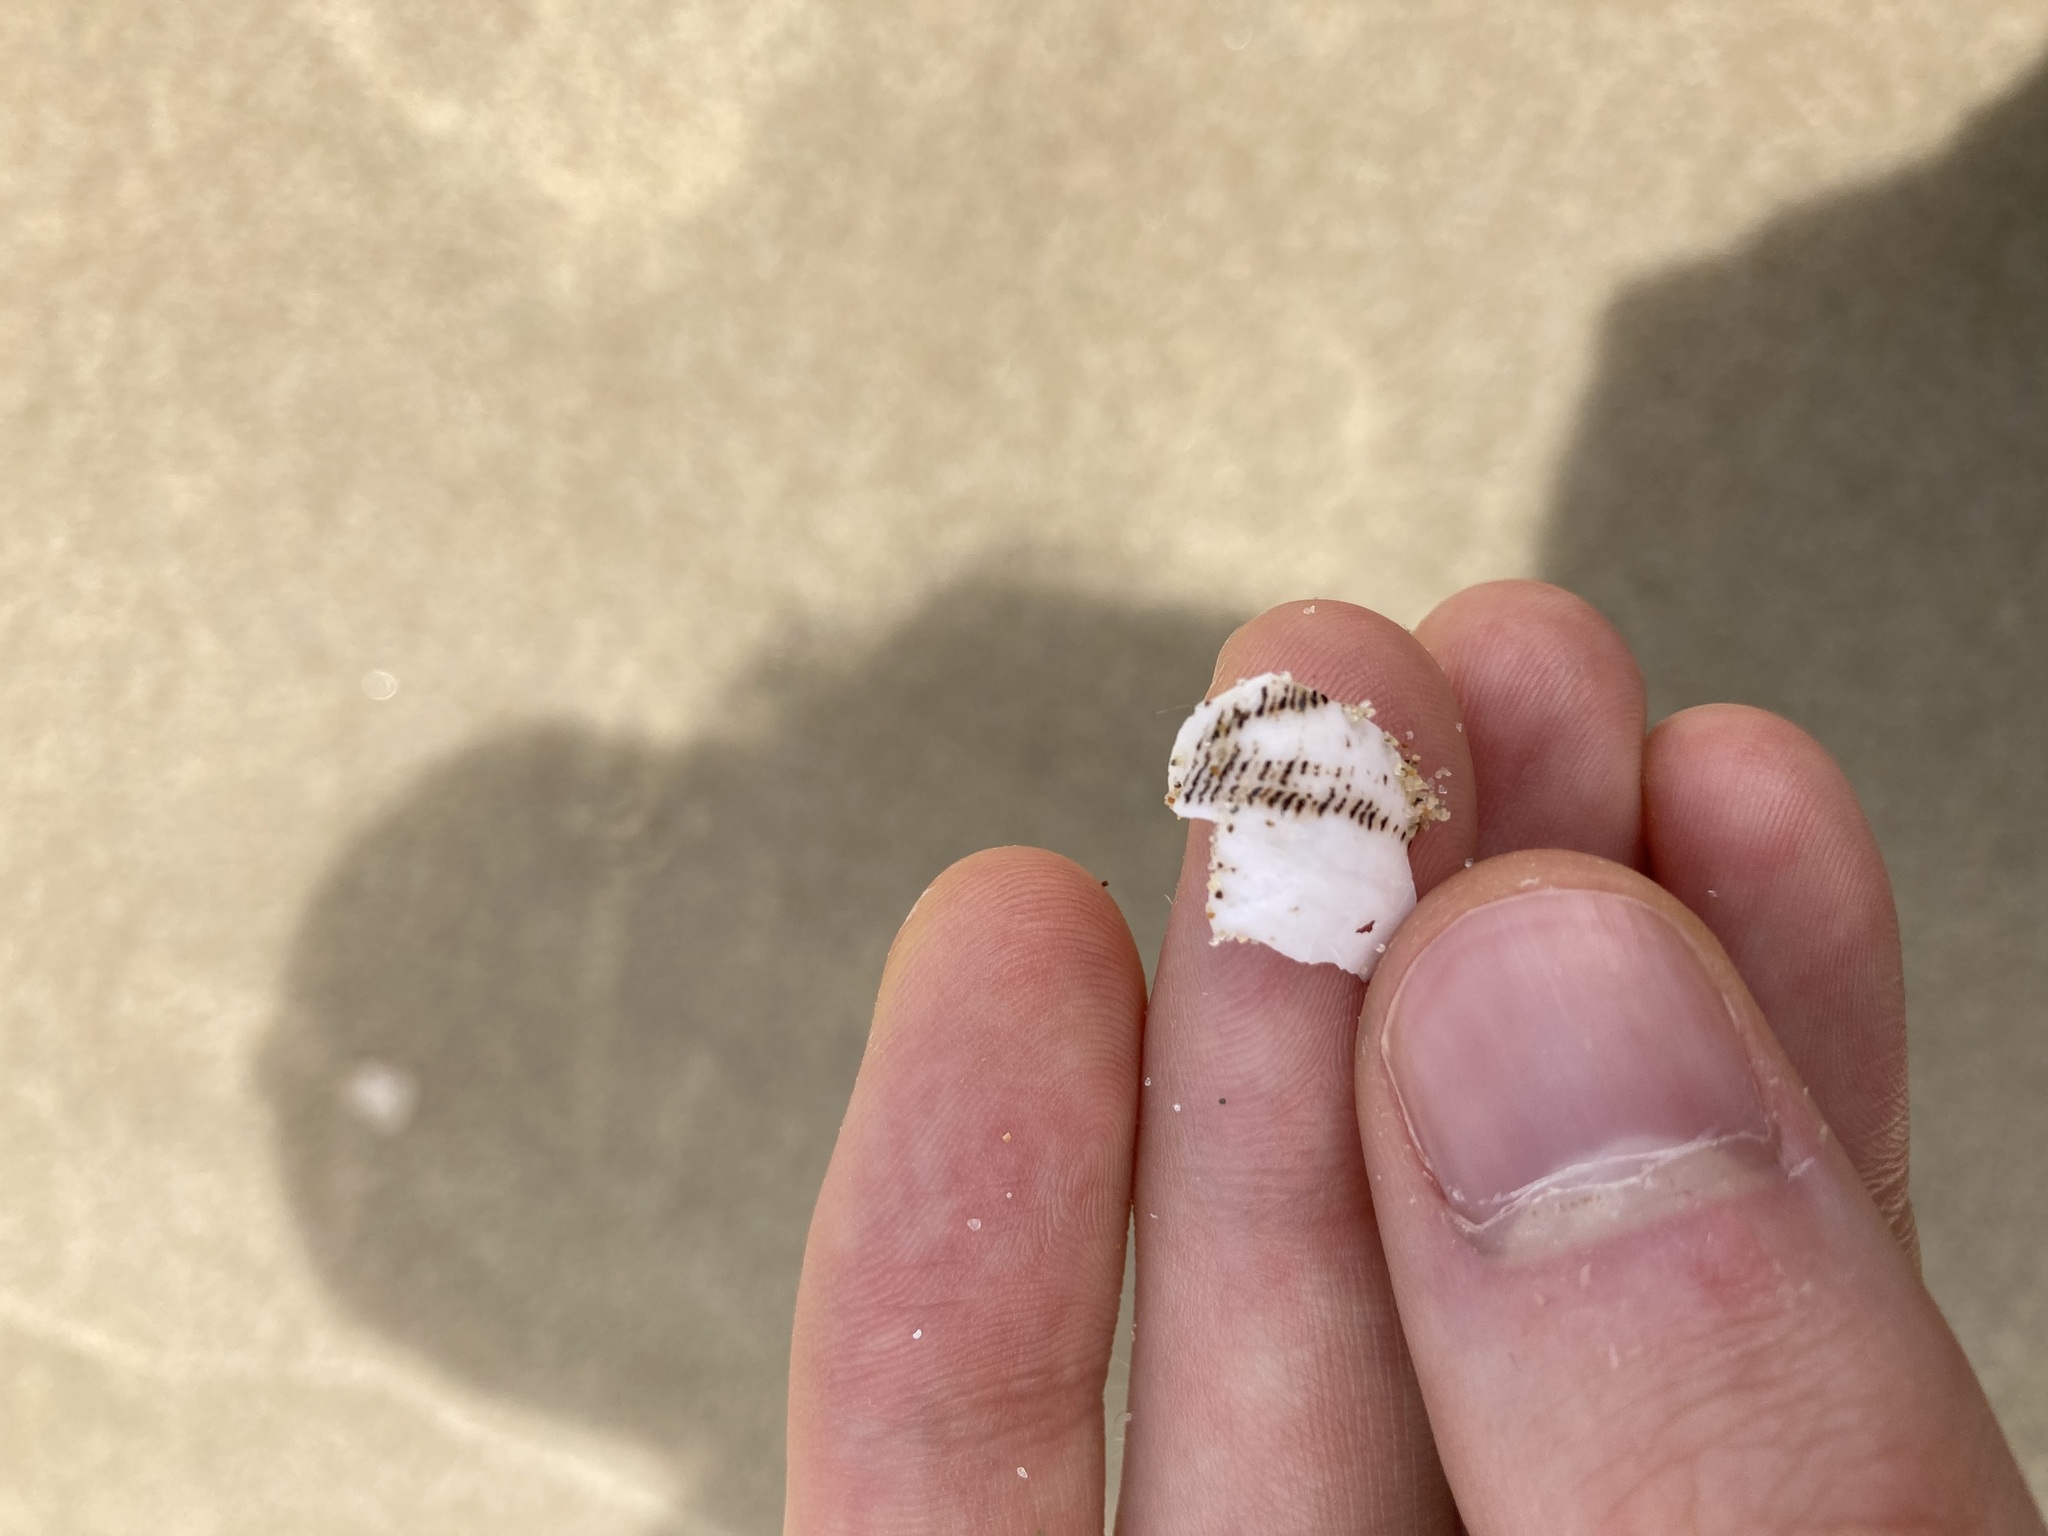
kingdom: Animalia
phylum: Mollusca
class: Gastropoda
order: Cephalaspidea
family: Aplustridae
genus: Hydatina
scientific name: Hydatina physis
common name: Brown-line paperbubble
